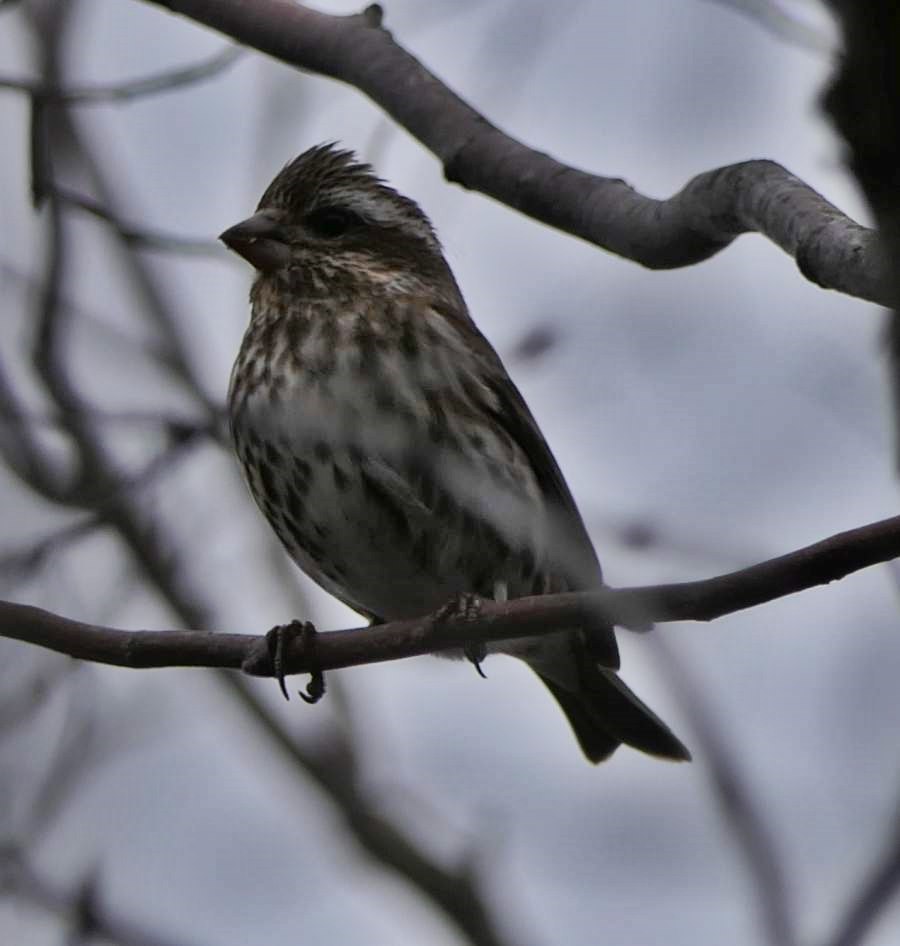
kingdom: Animalia
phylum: Chordata
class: Aves
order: Passeriformes
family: Fringillidae
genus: Haemorhous
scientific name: Haemorhous purpureus
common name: Purple finch
